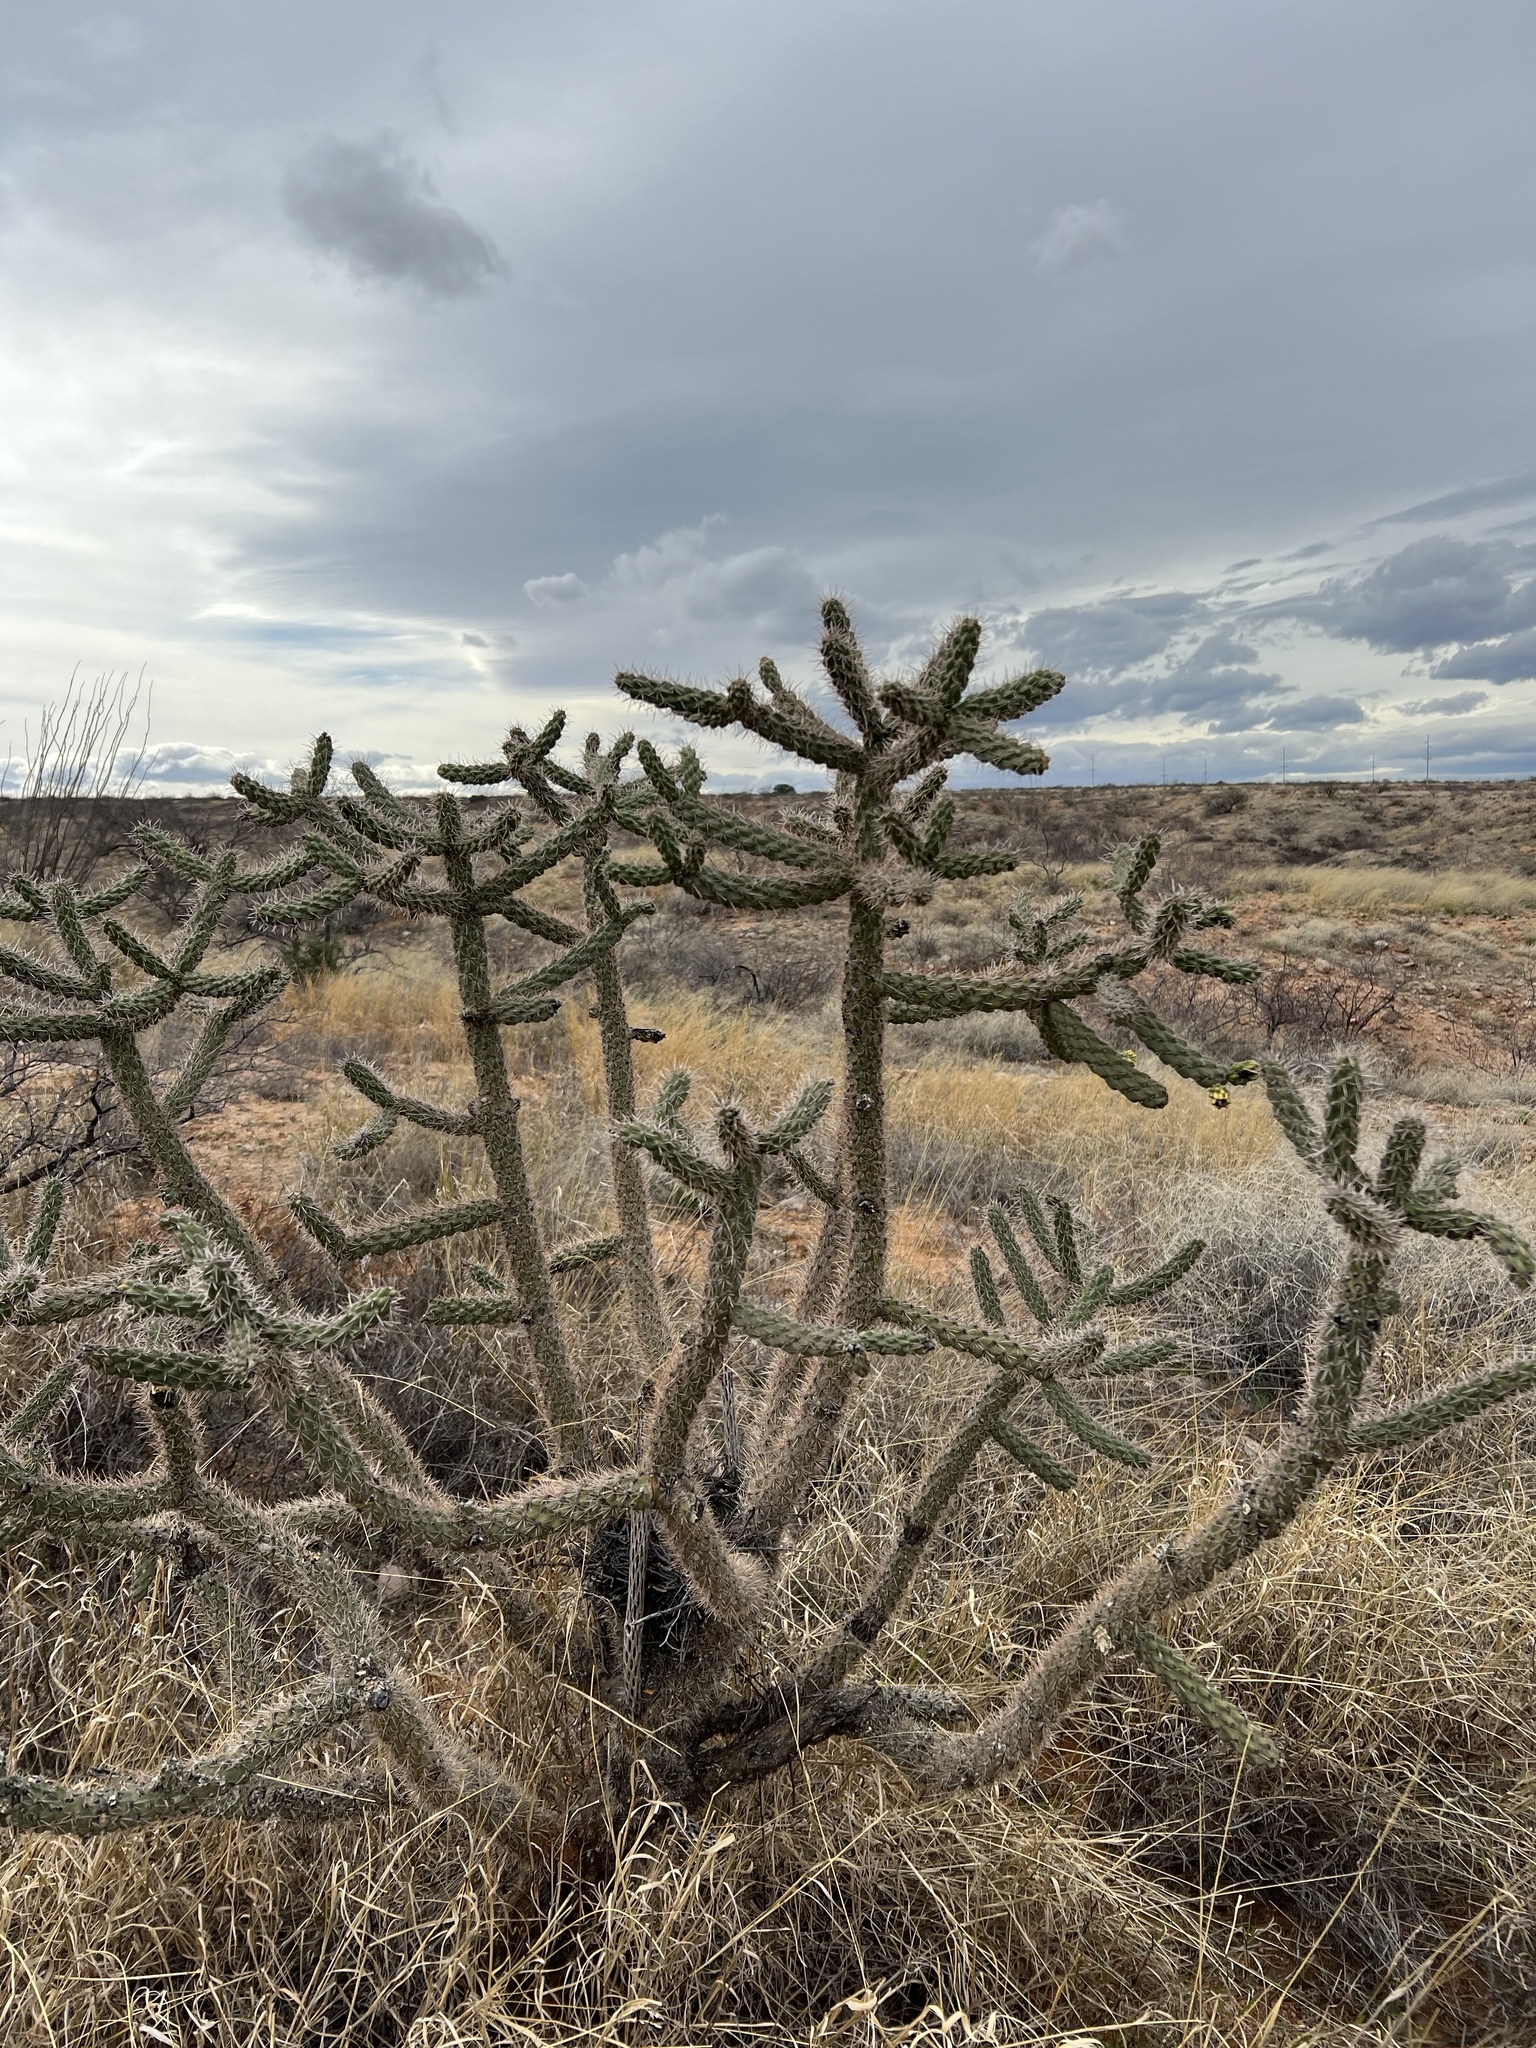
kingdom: Plantae
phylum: Tracheophyta
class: Magnoliopsida
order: Caryophyllales
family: Cactaceae
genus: Cylindropuntia
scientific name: Cylindropuntia imbricata
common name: Candelabrum cactus
